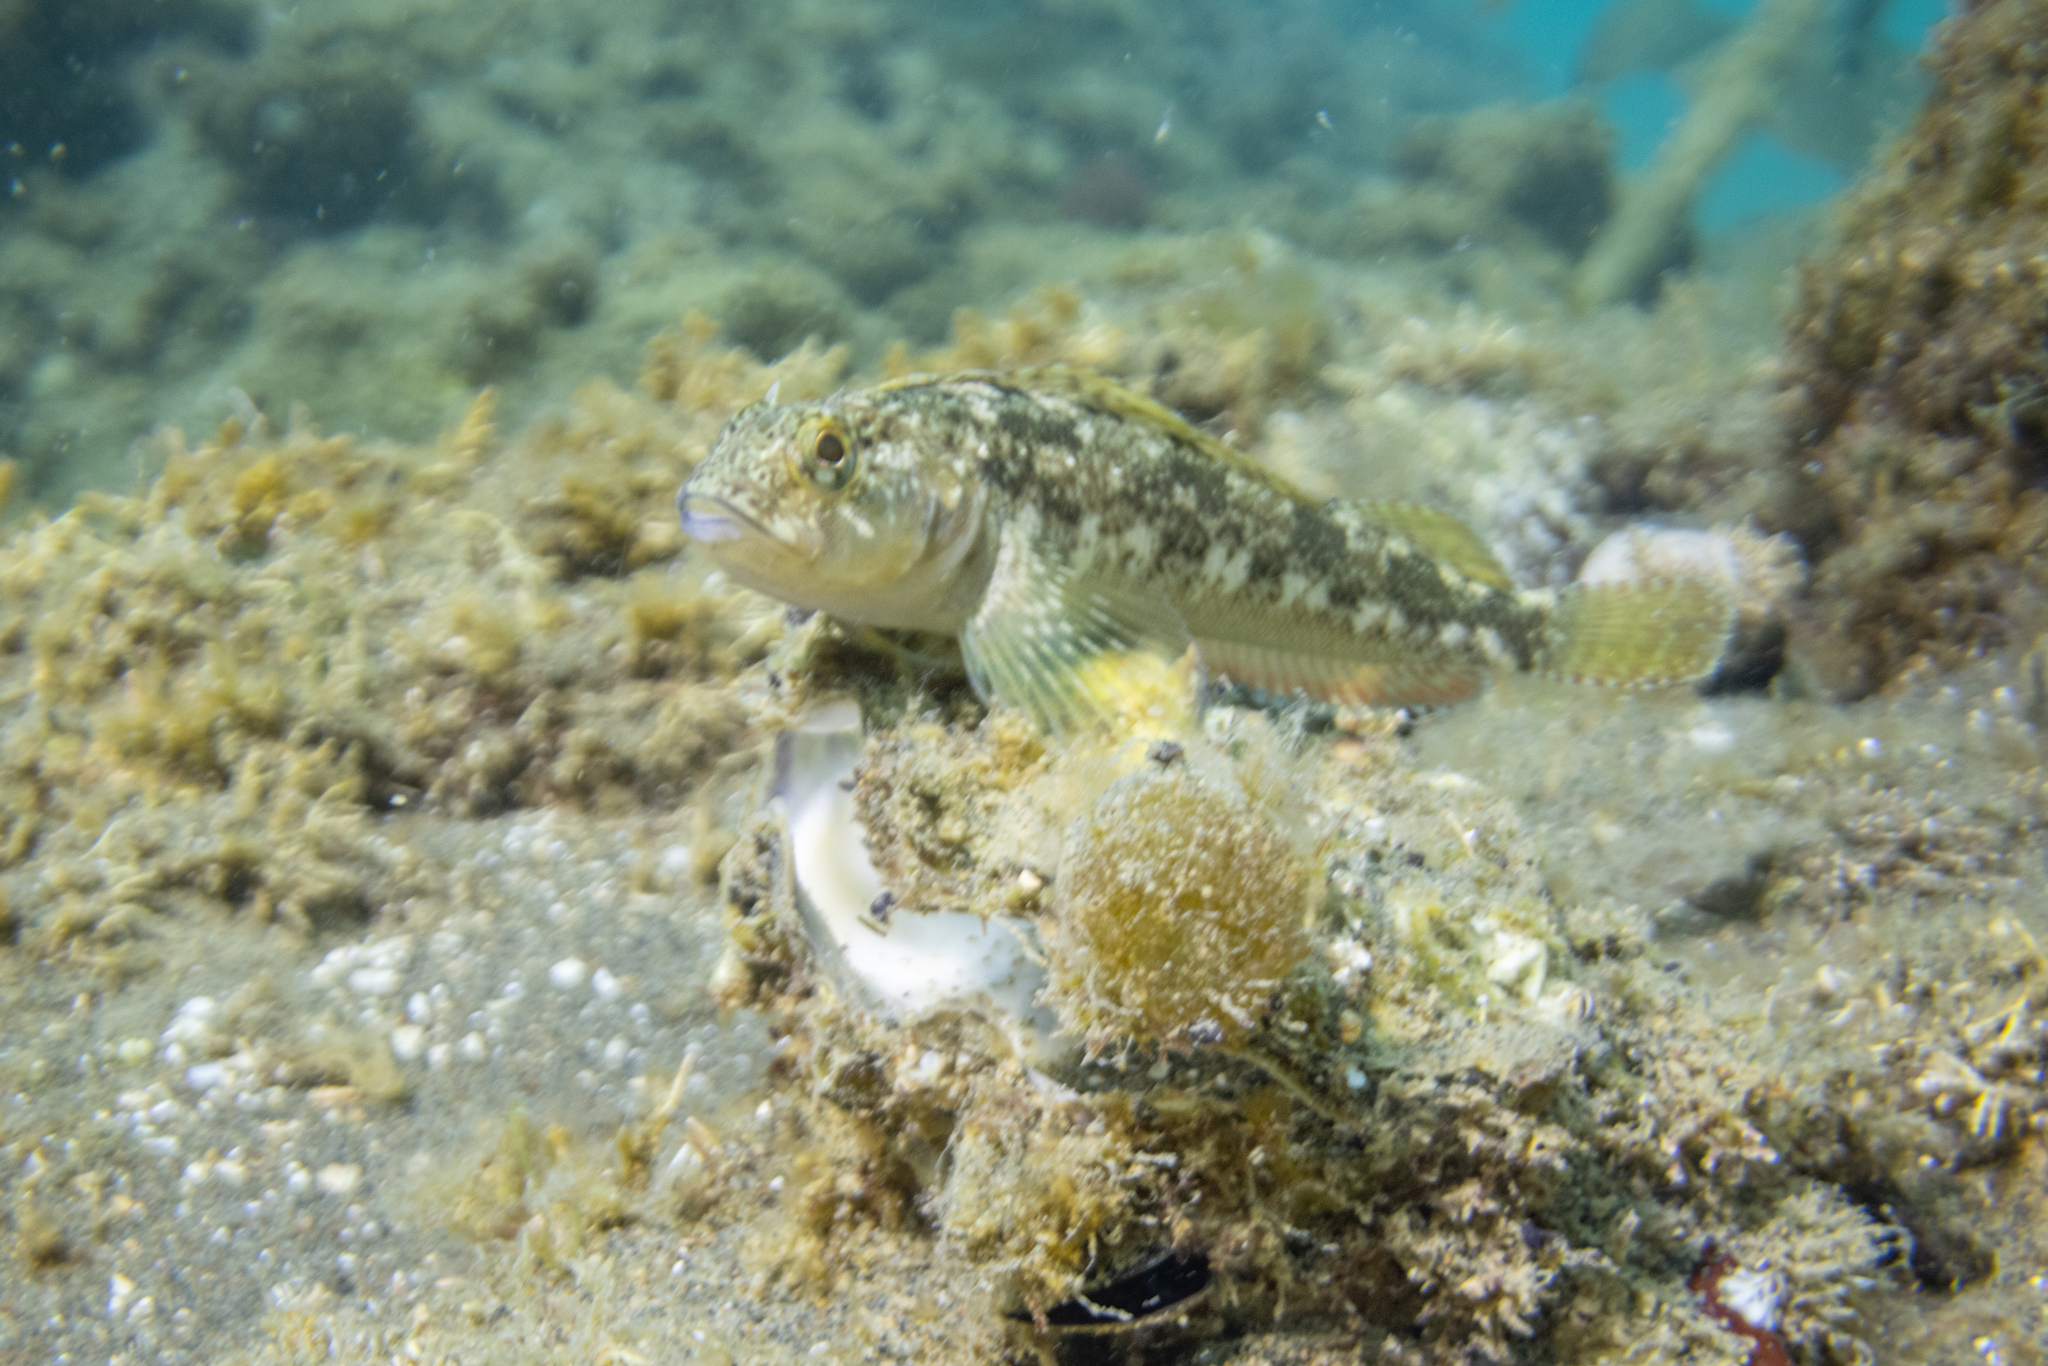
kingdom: Animalia
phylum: Chordata
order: Perciformes
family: Tripterygiidae
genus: Forsterygion
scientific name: Forsterygion capito
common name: Spotted robust triplefin
